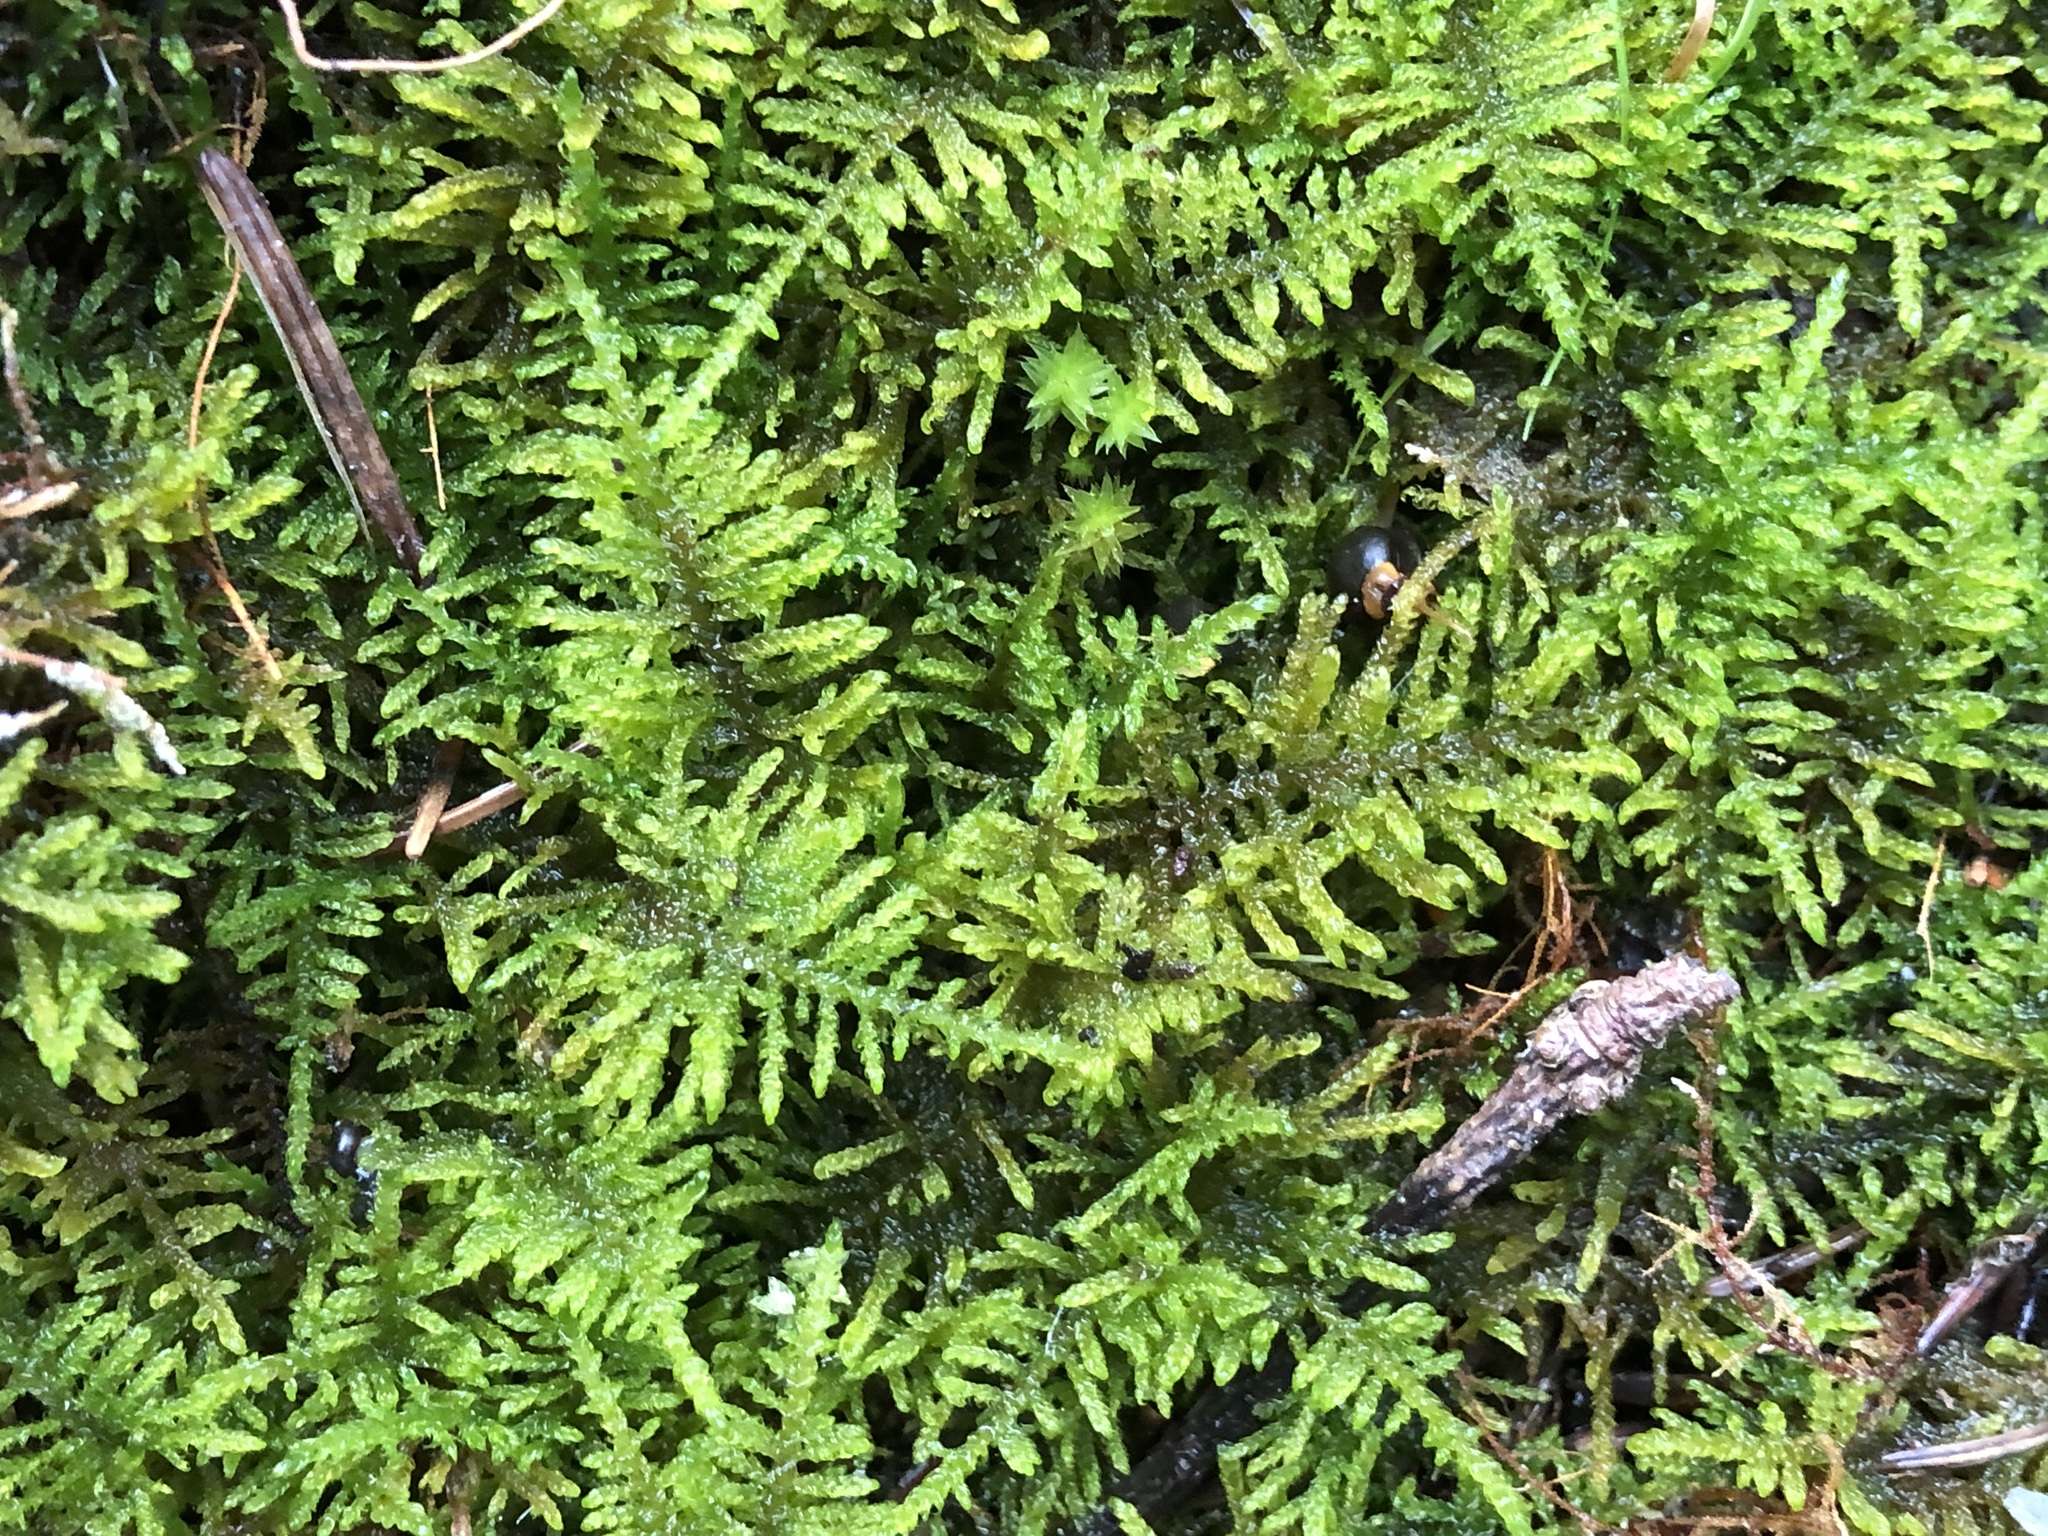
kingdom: Plantae
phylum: Bryophyta
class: Bryopsida
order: Hypnales
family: Amblystegiaceae
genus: Palustriella
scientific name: Palustriella commutata
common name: Curled hook-moss
